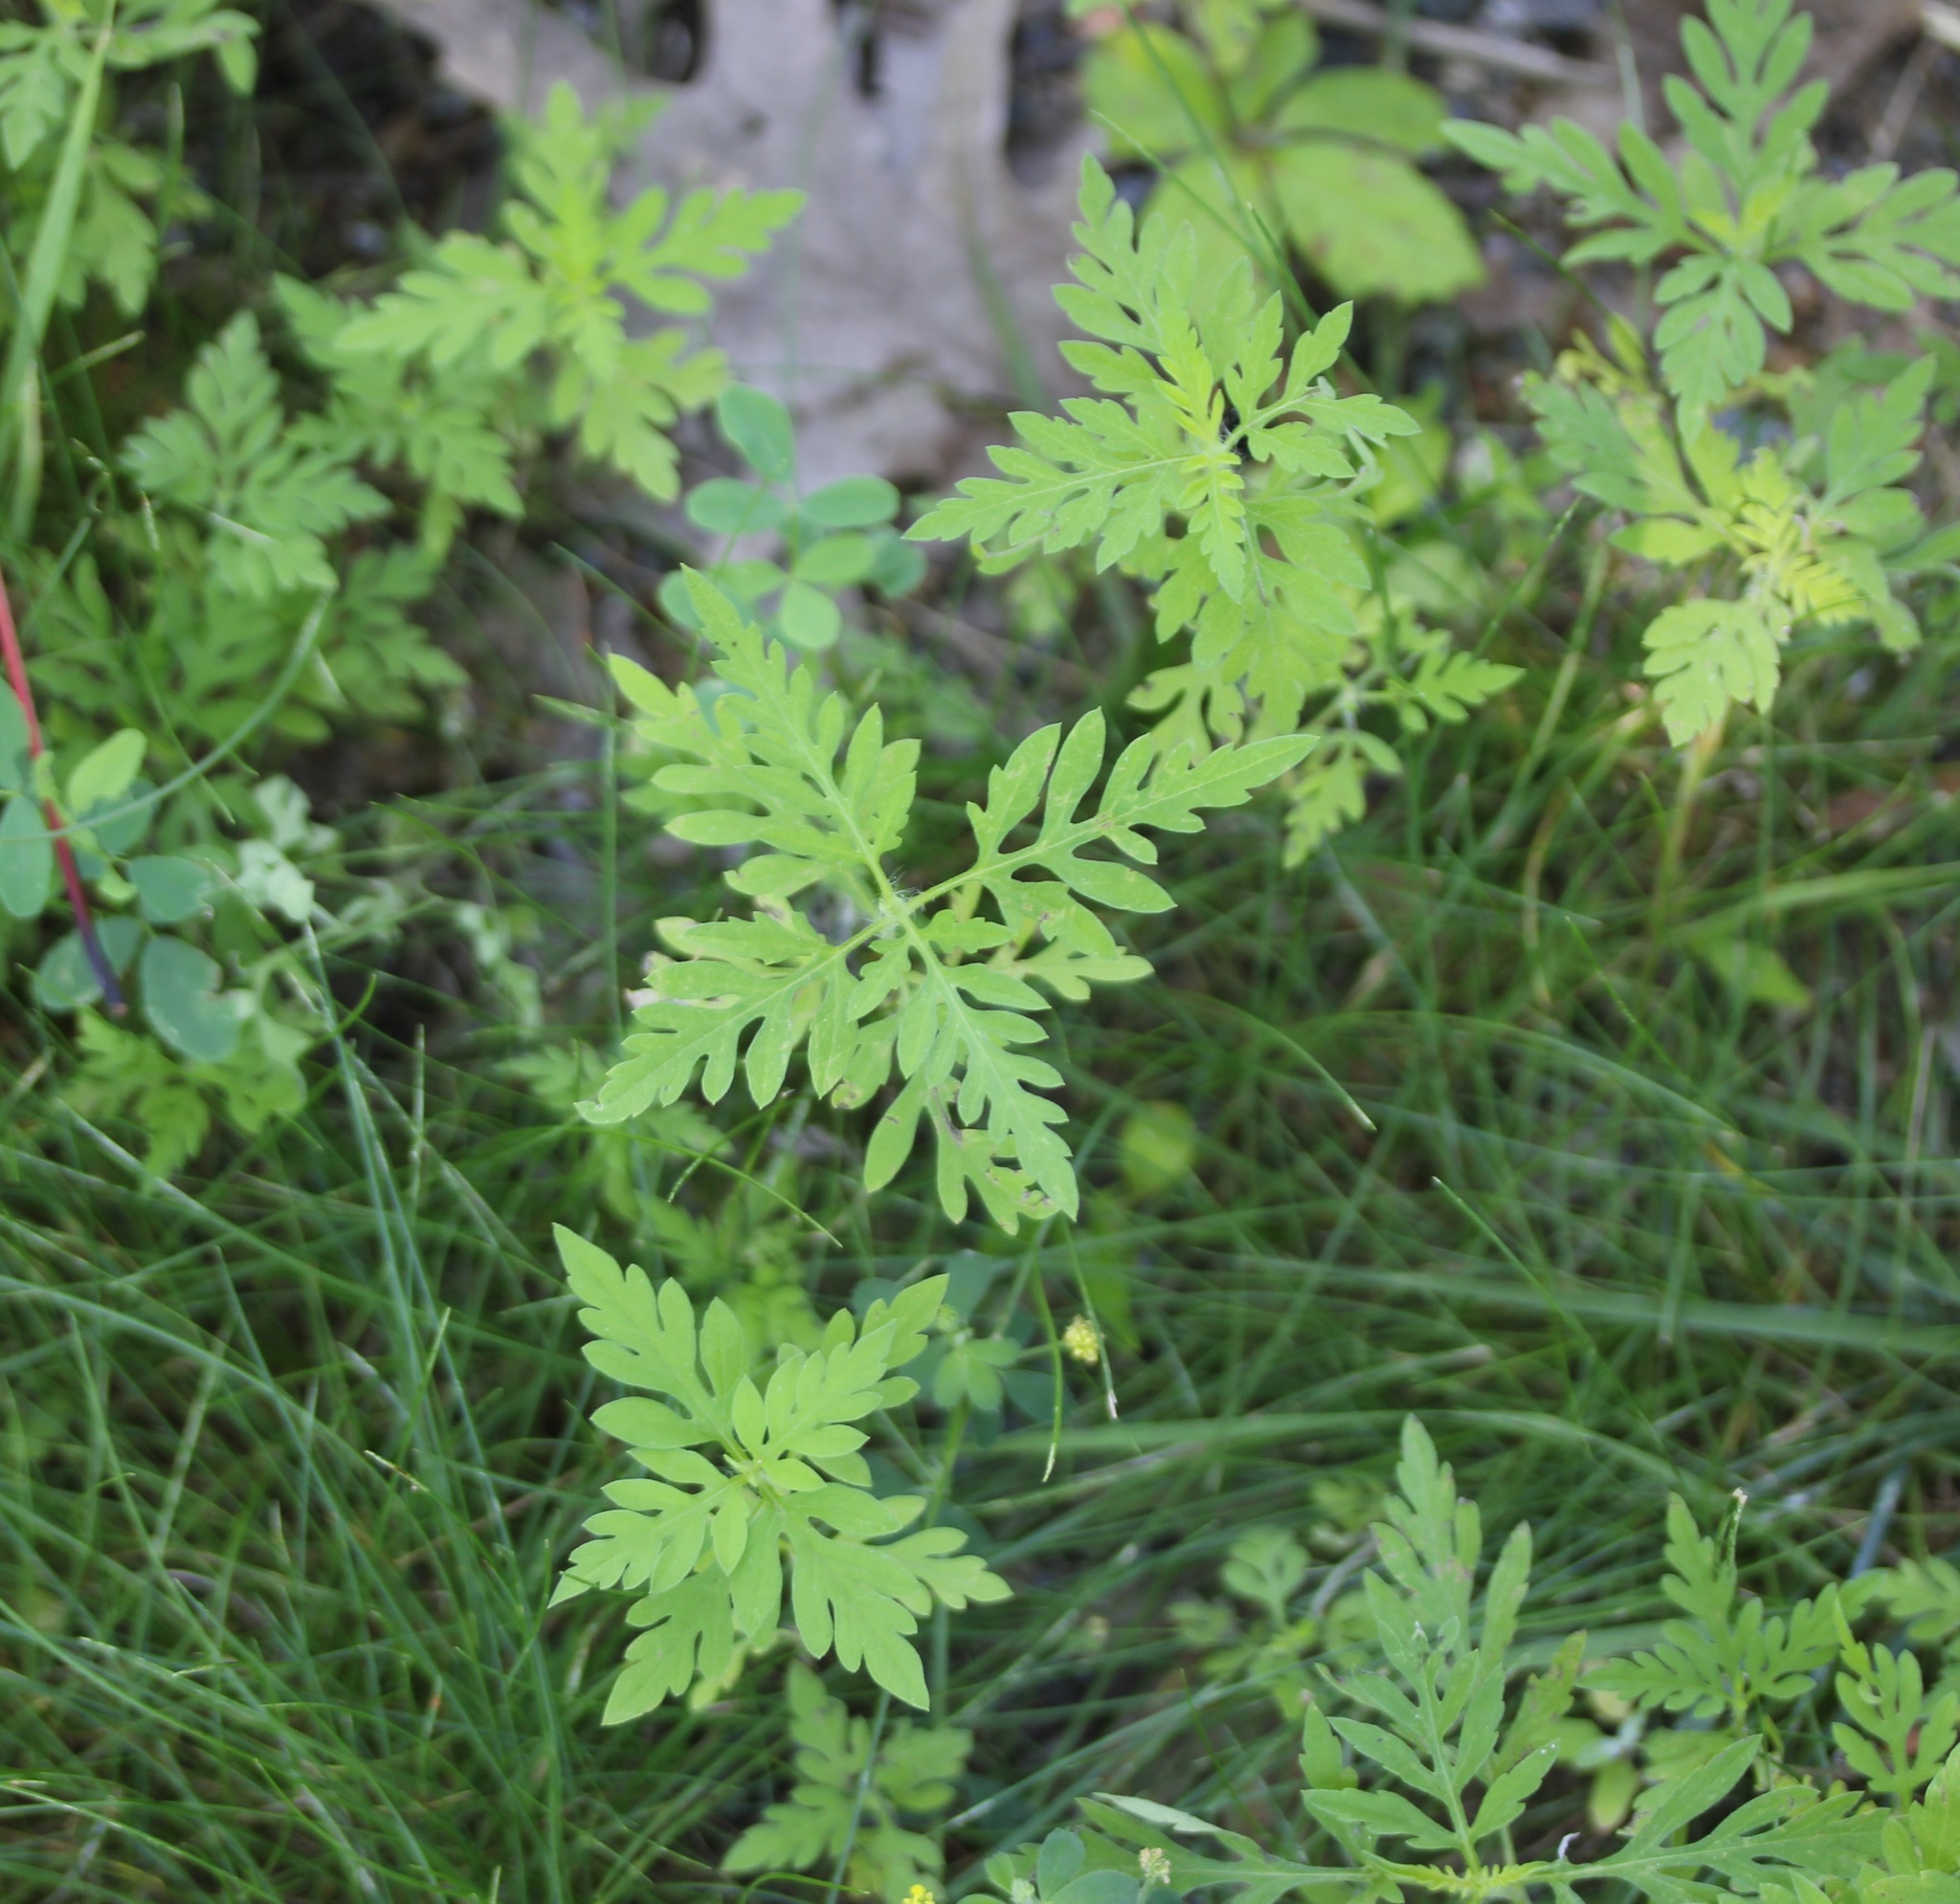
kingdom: Plantae
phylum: Tracheophyta
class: Magnoliopsida
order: Asterales
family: Asteraceae
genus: Ambrosia
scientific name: Ambrosia artemisiifolia
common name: Annual ragweed
